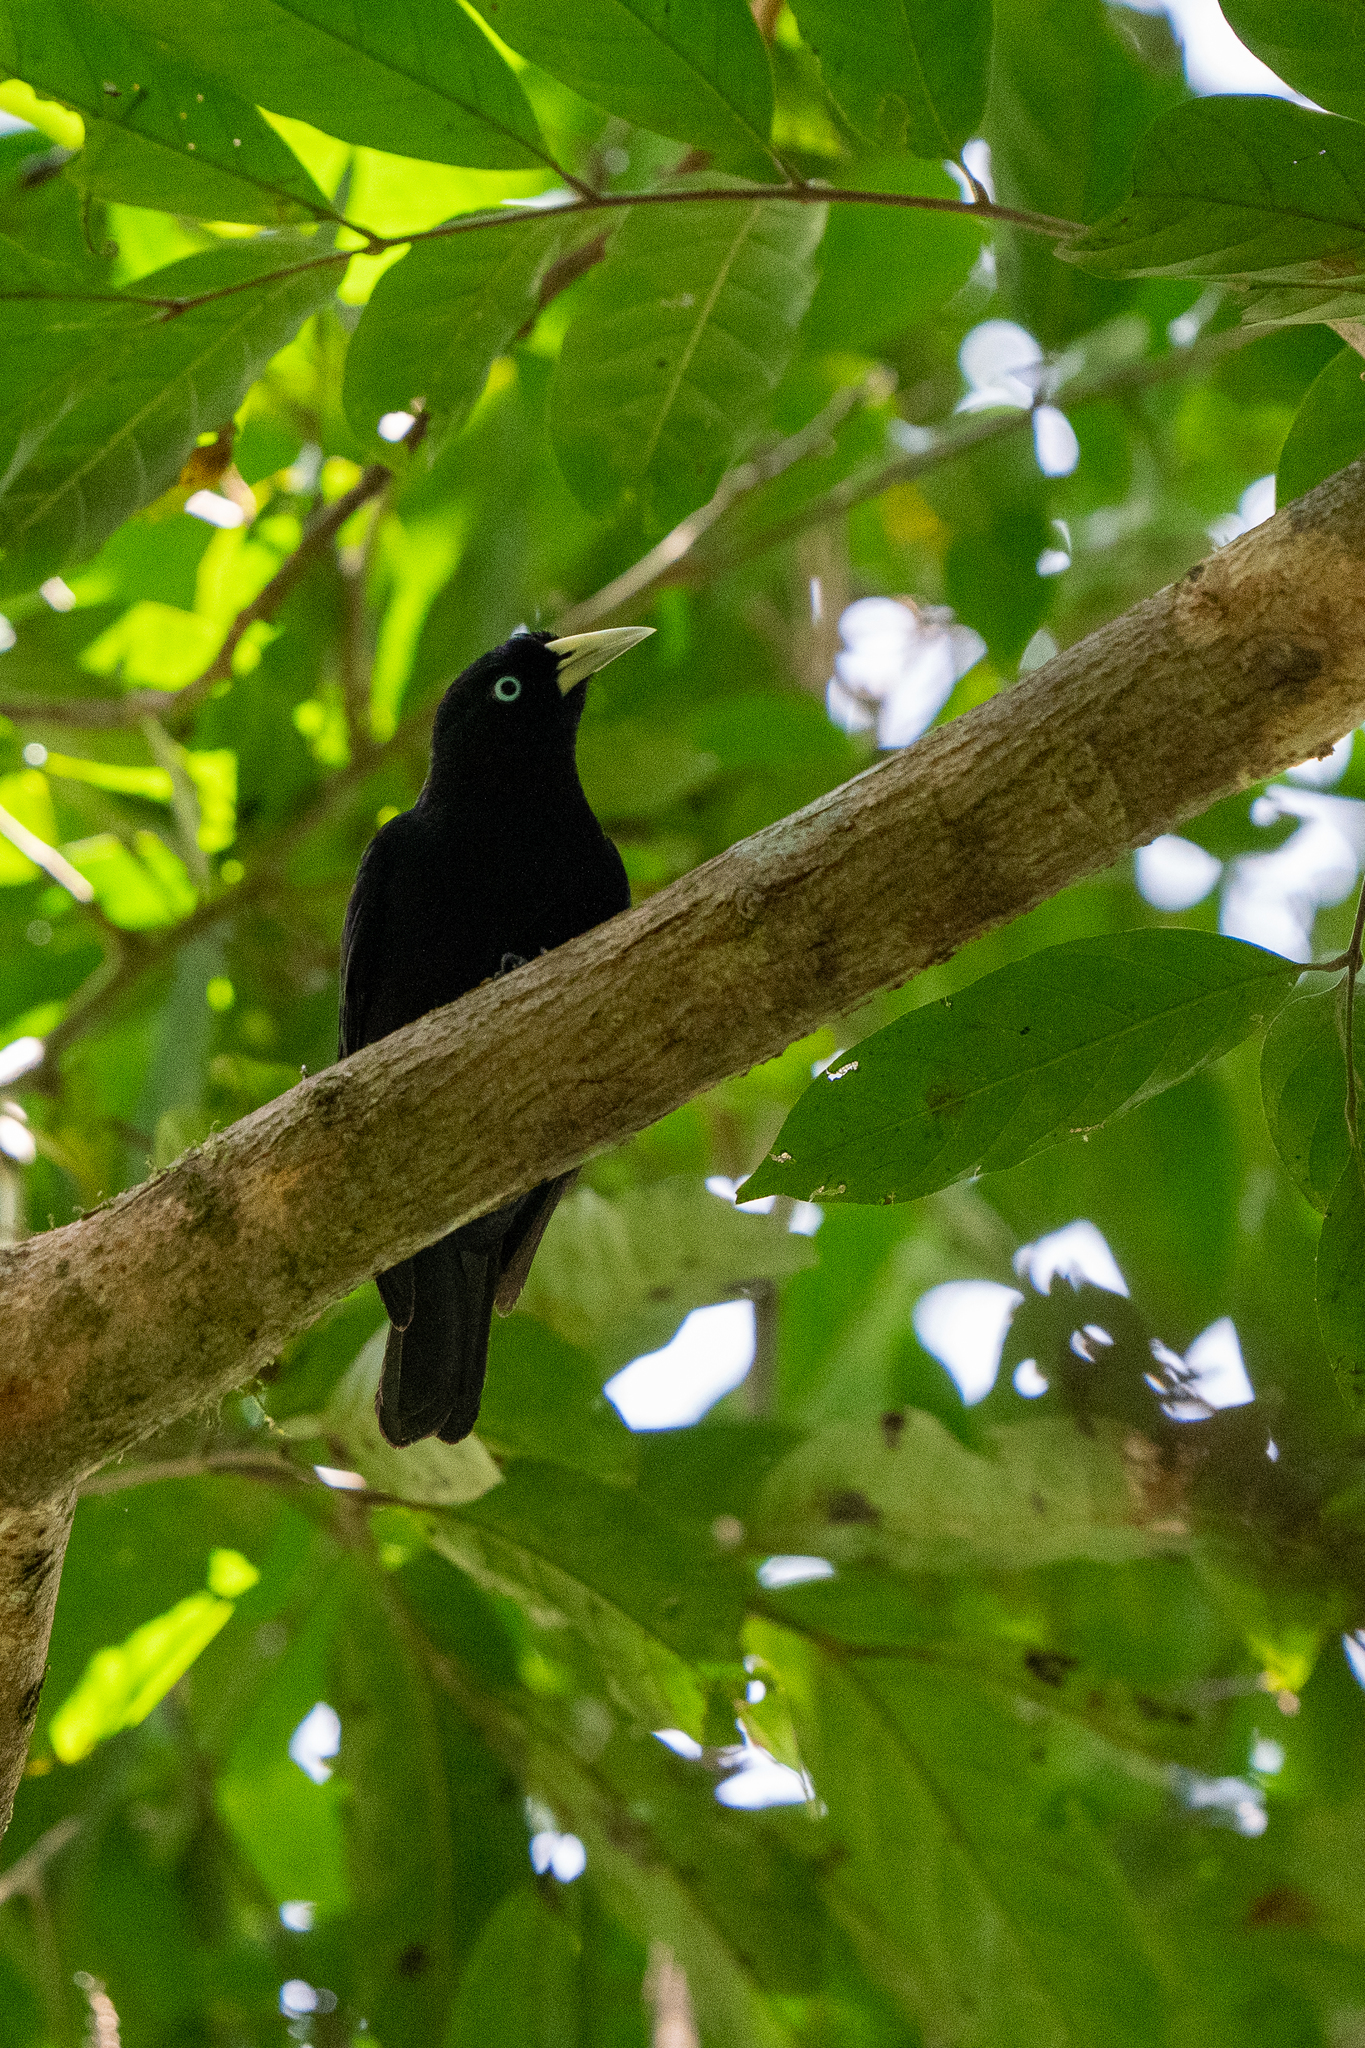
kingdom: Animalia
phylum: Chordata
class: Aves
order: Passeriformes
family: Icteridae
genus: Cacicus
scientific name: Cacicus uropygialis
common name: Scarlet-rumped cacique
